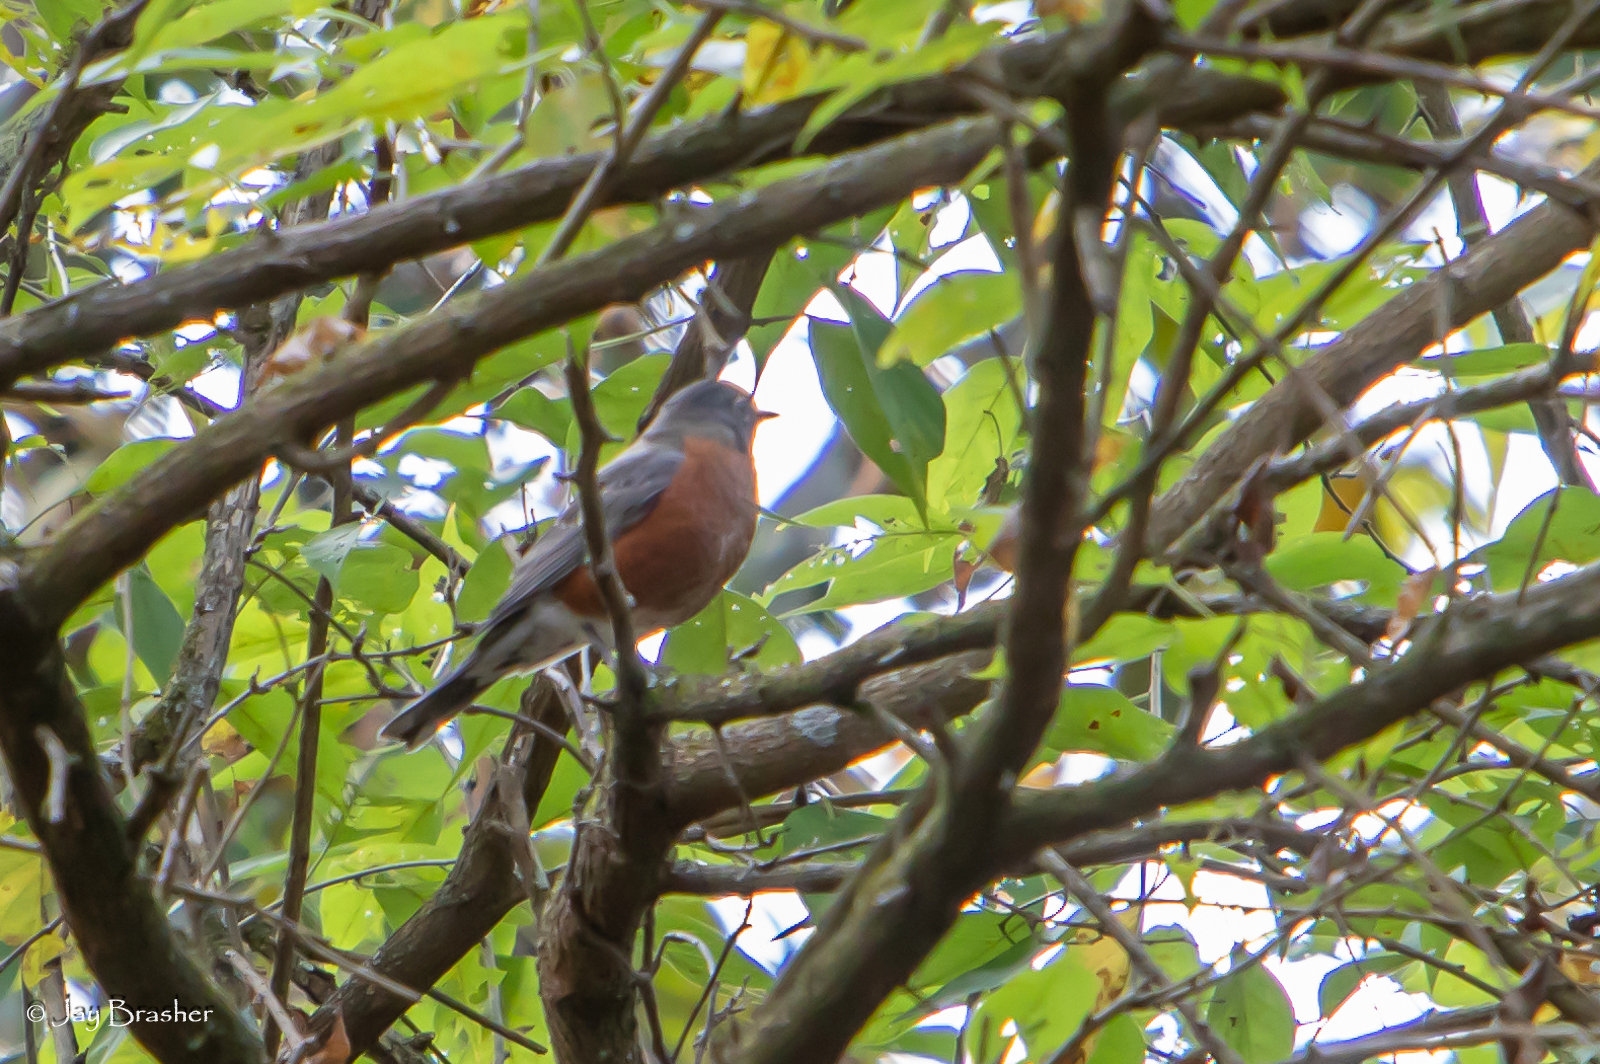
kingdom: Animalia
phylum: Chordata
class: Aves
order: Passeriformes
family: Turdidae
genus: Turdus
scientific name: Turdus migratorius
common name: American robin
